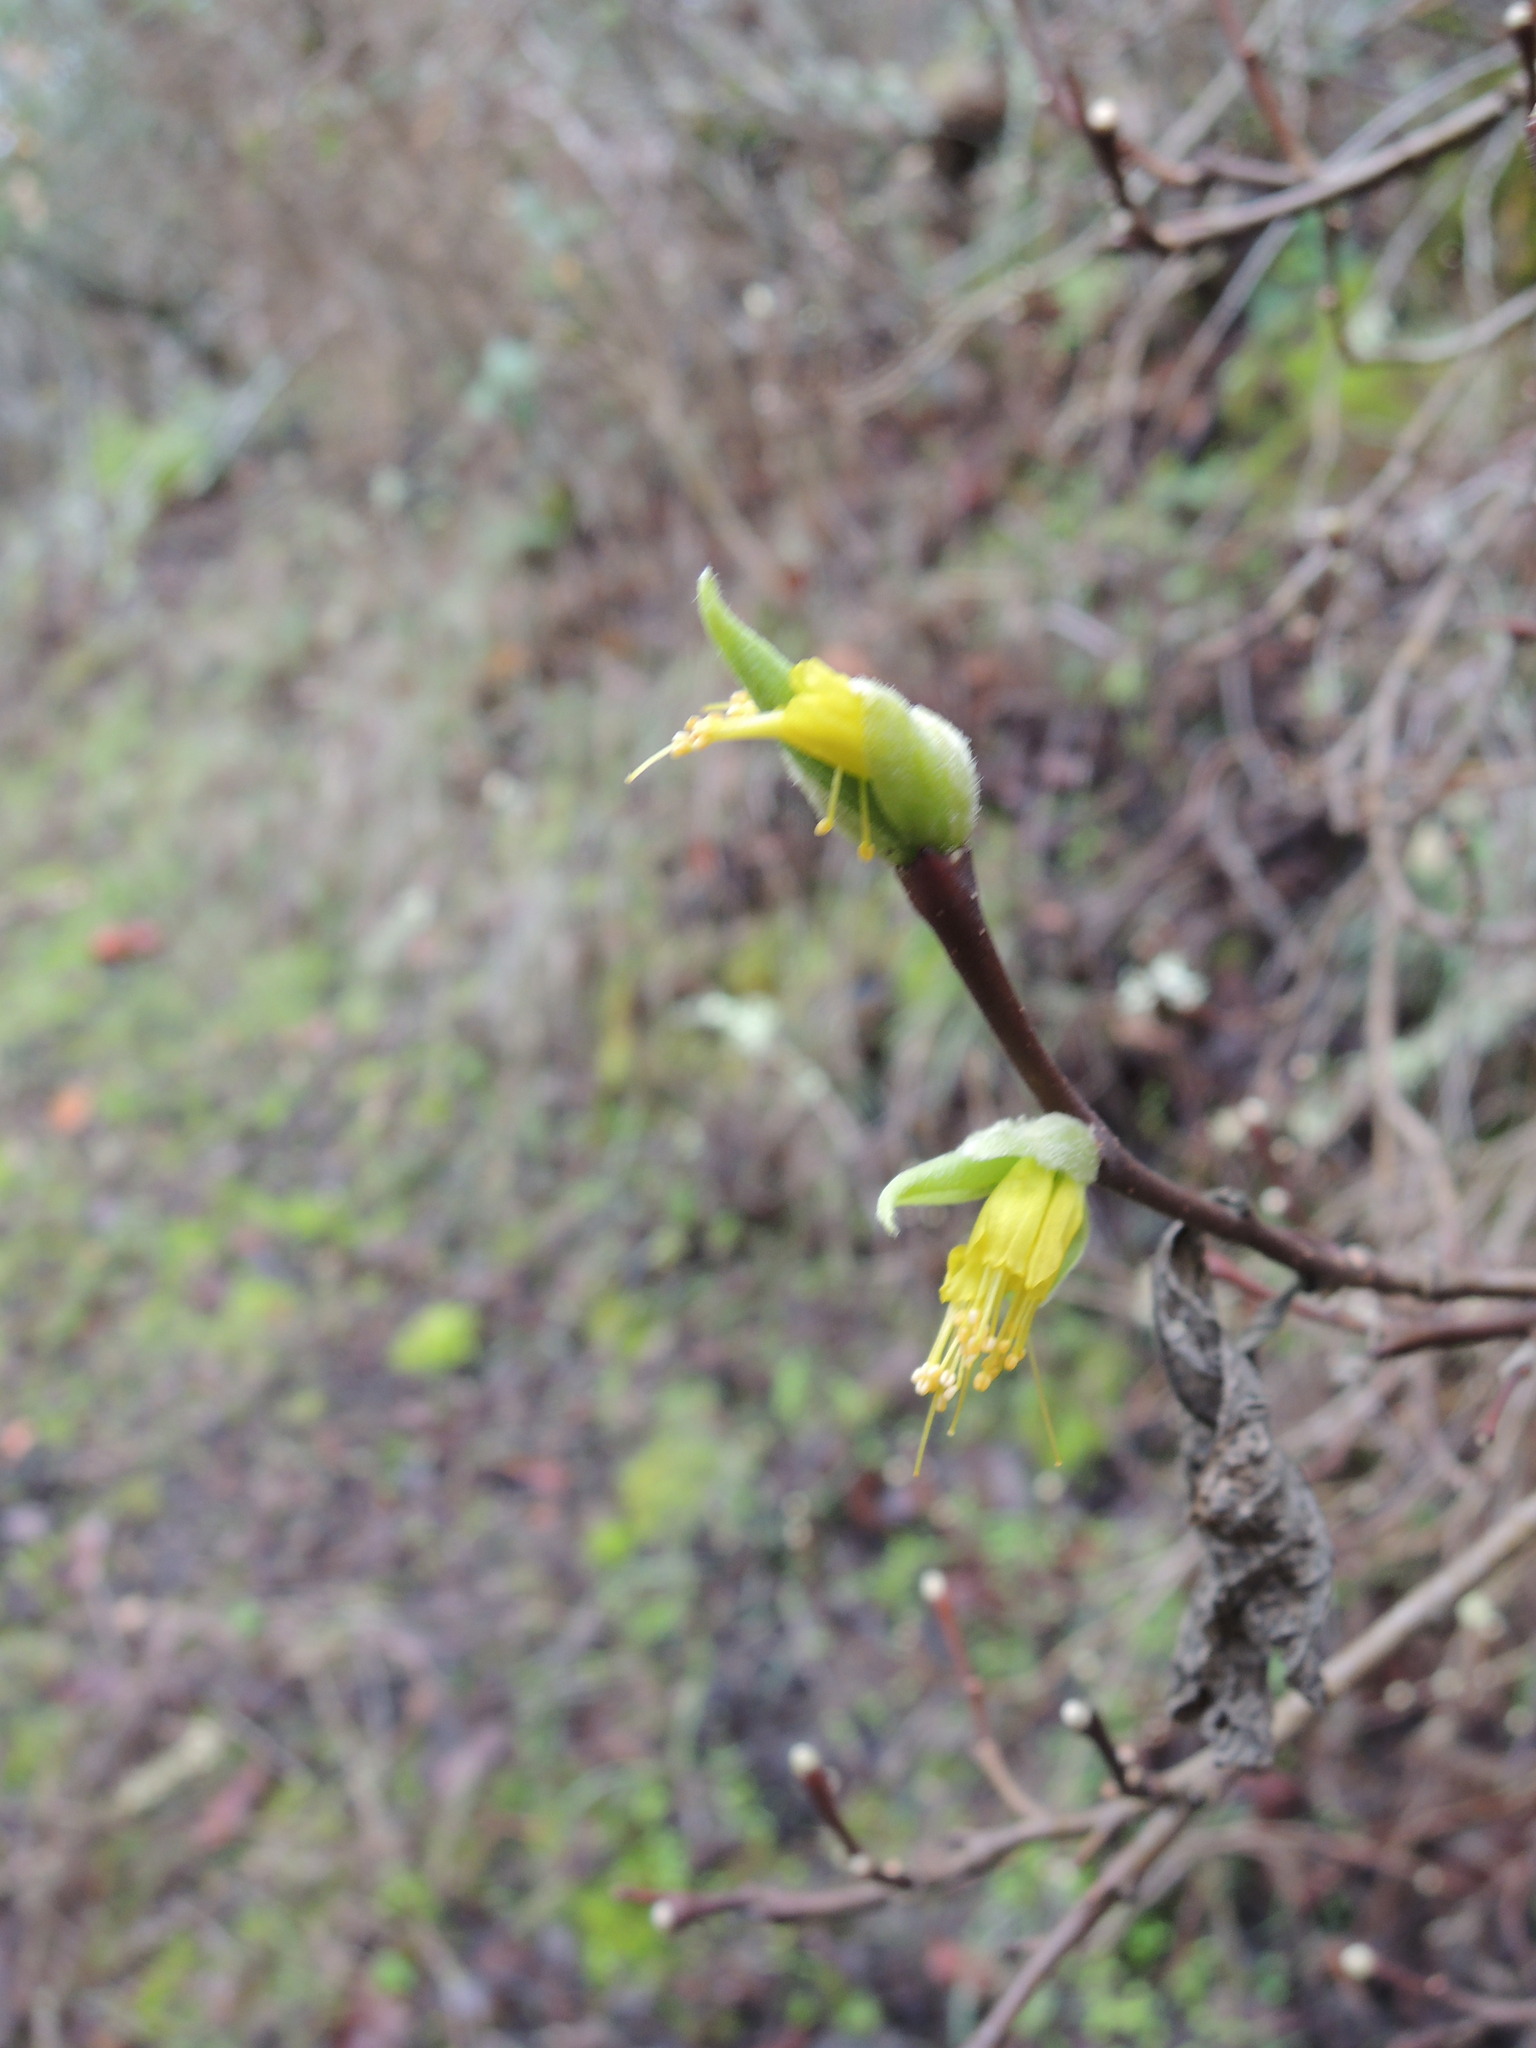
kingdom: Plantae
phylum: Tracheophyta
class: Magnoliopsida
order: Malvales
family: Thymelaeaceae
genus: Dirca
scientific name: Dirca occidentalis
